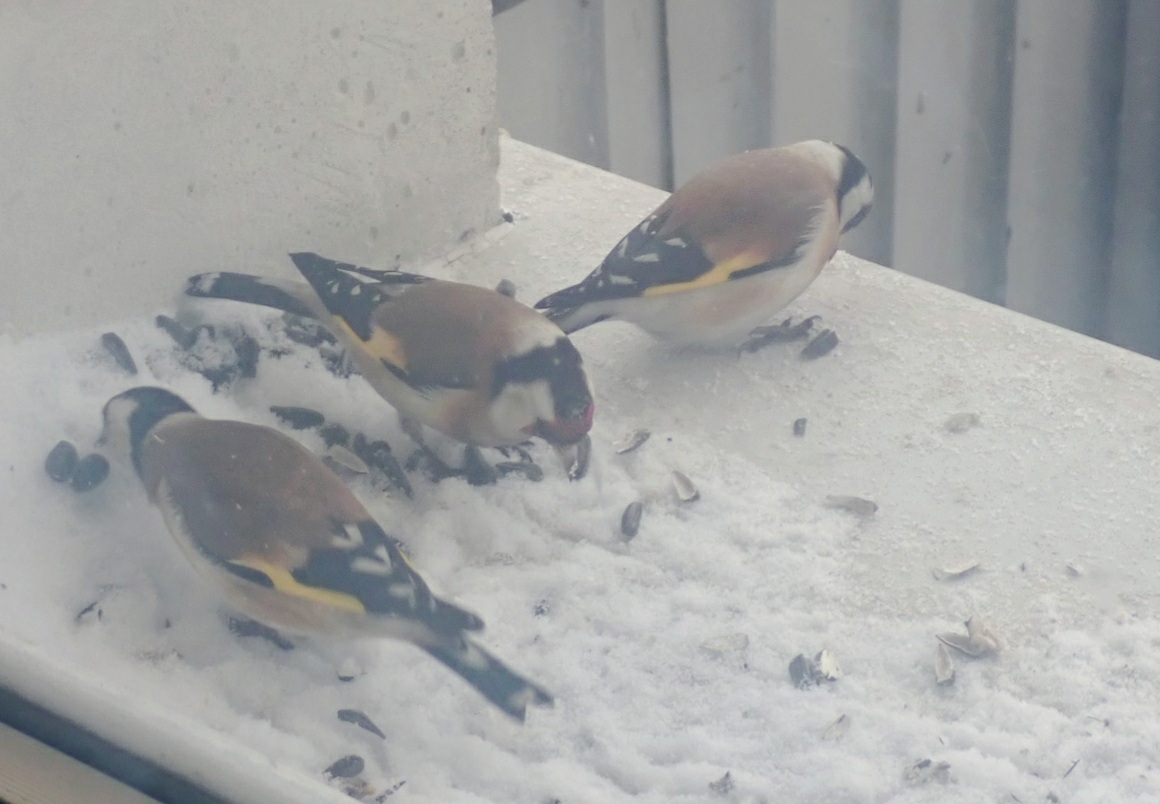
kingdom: Animalia
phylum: Chordata
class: Aves
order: Passeriformes
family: Fringillidae
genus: Carduelis
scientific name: Carduelis carduelis
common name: European goldfinch
